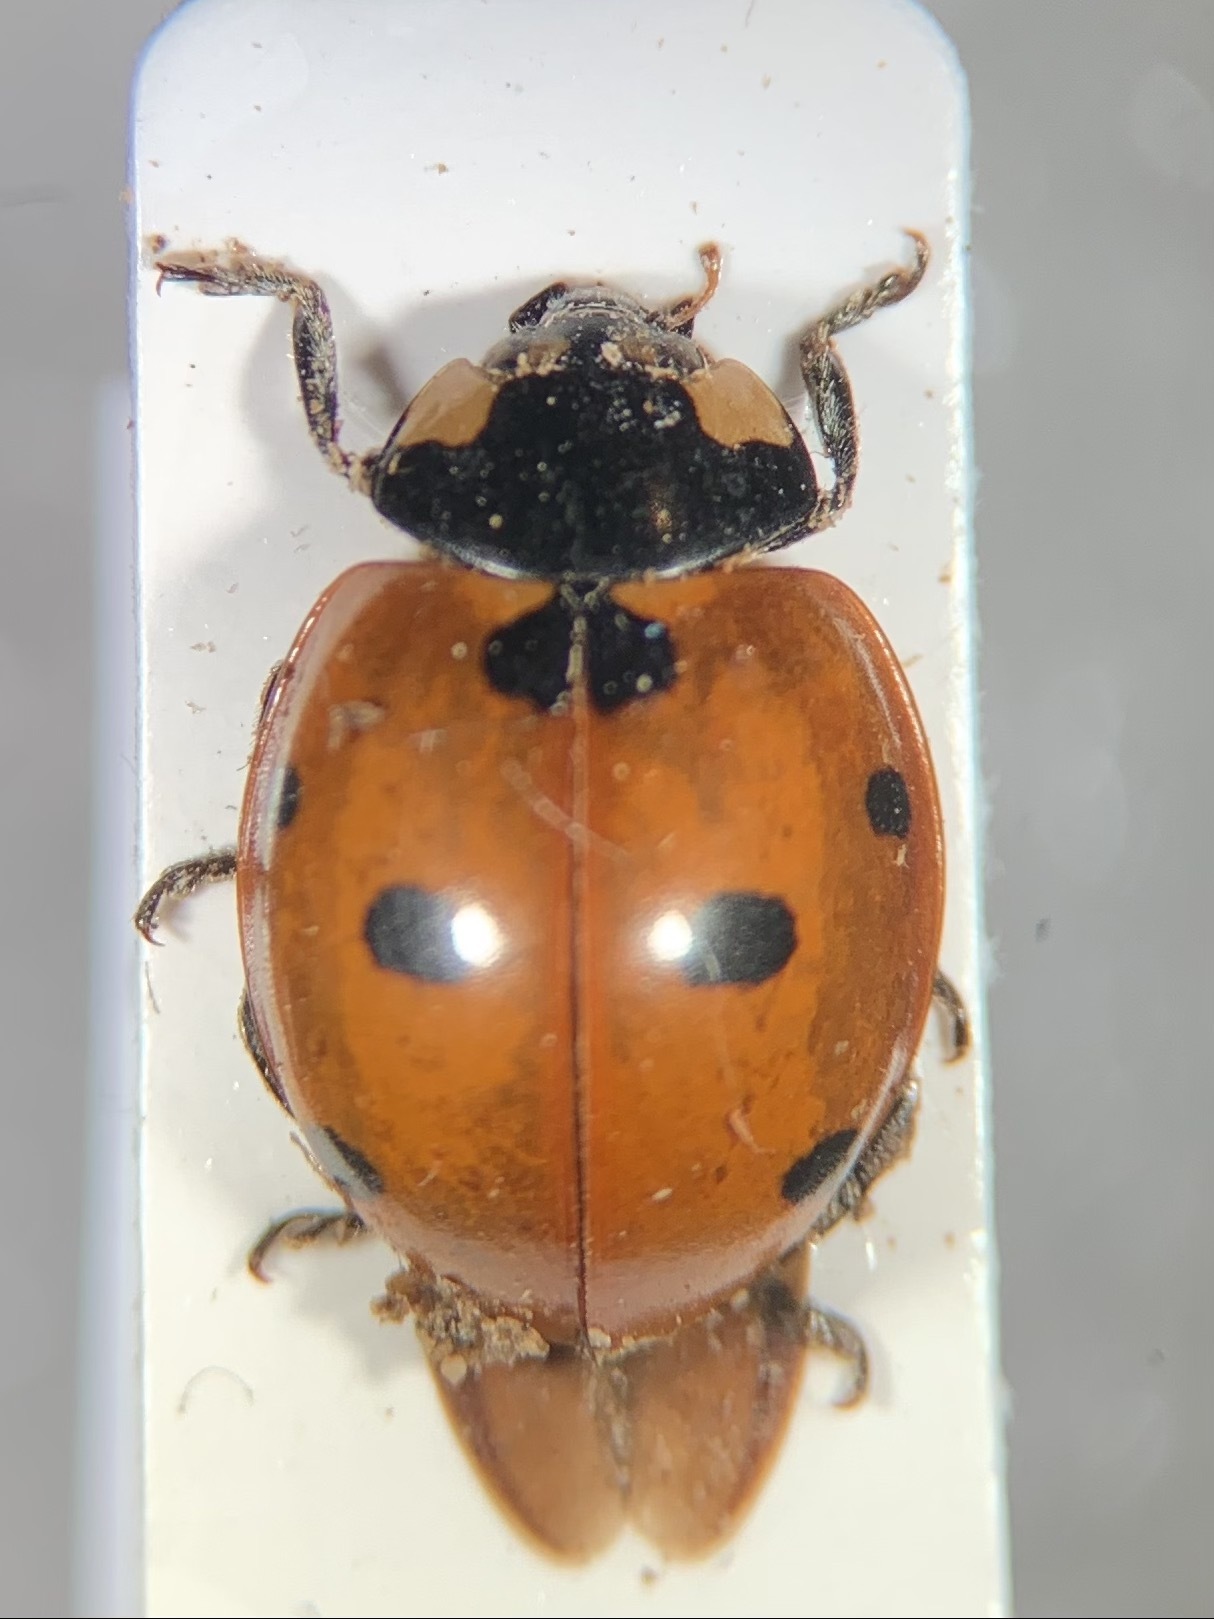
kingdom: Animalia
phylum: Arthropoda
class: Insecta
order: Coleoptera
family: Coccinellidae
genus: Coccinella
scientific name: Coccinella septempunctata
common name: Sevenspotted lady beetle
